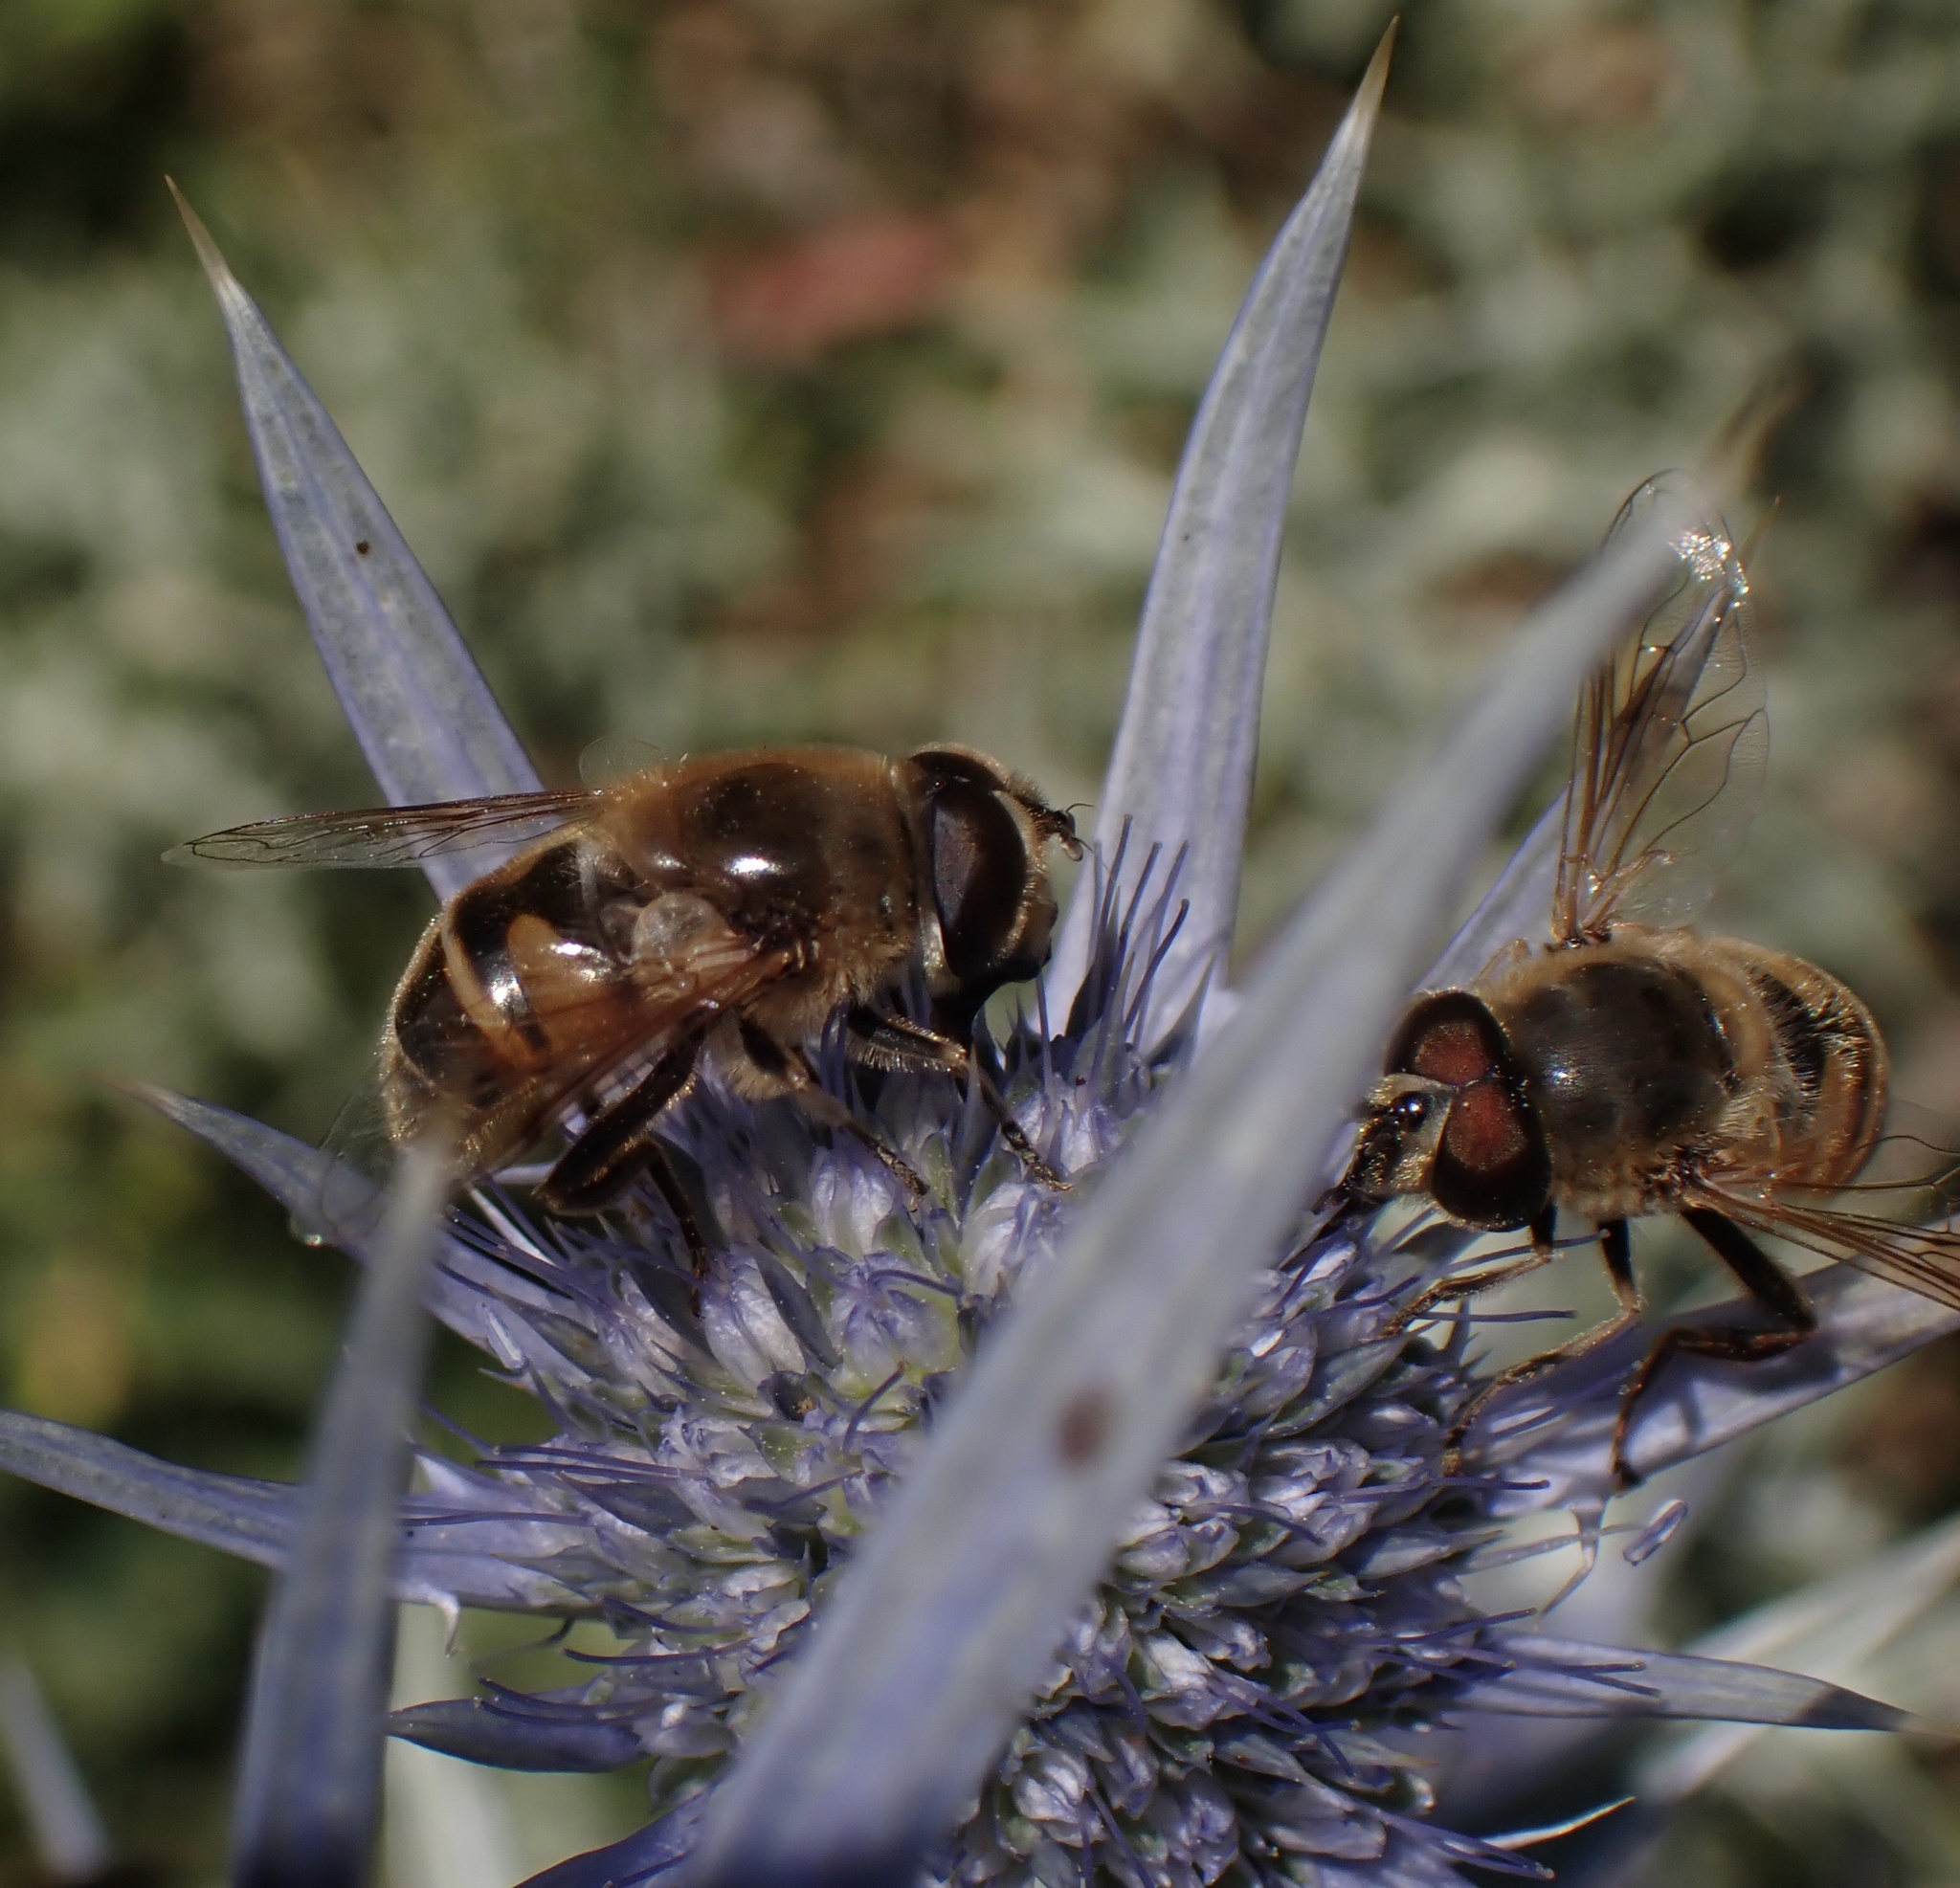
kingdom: Animalia
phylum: Arthropoda
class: Insecta
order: Diptera
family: Syrphidae
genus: Eristalis
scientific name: Eristalis tenax
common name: Drone fly
